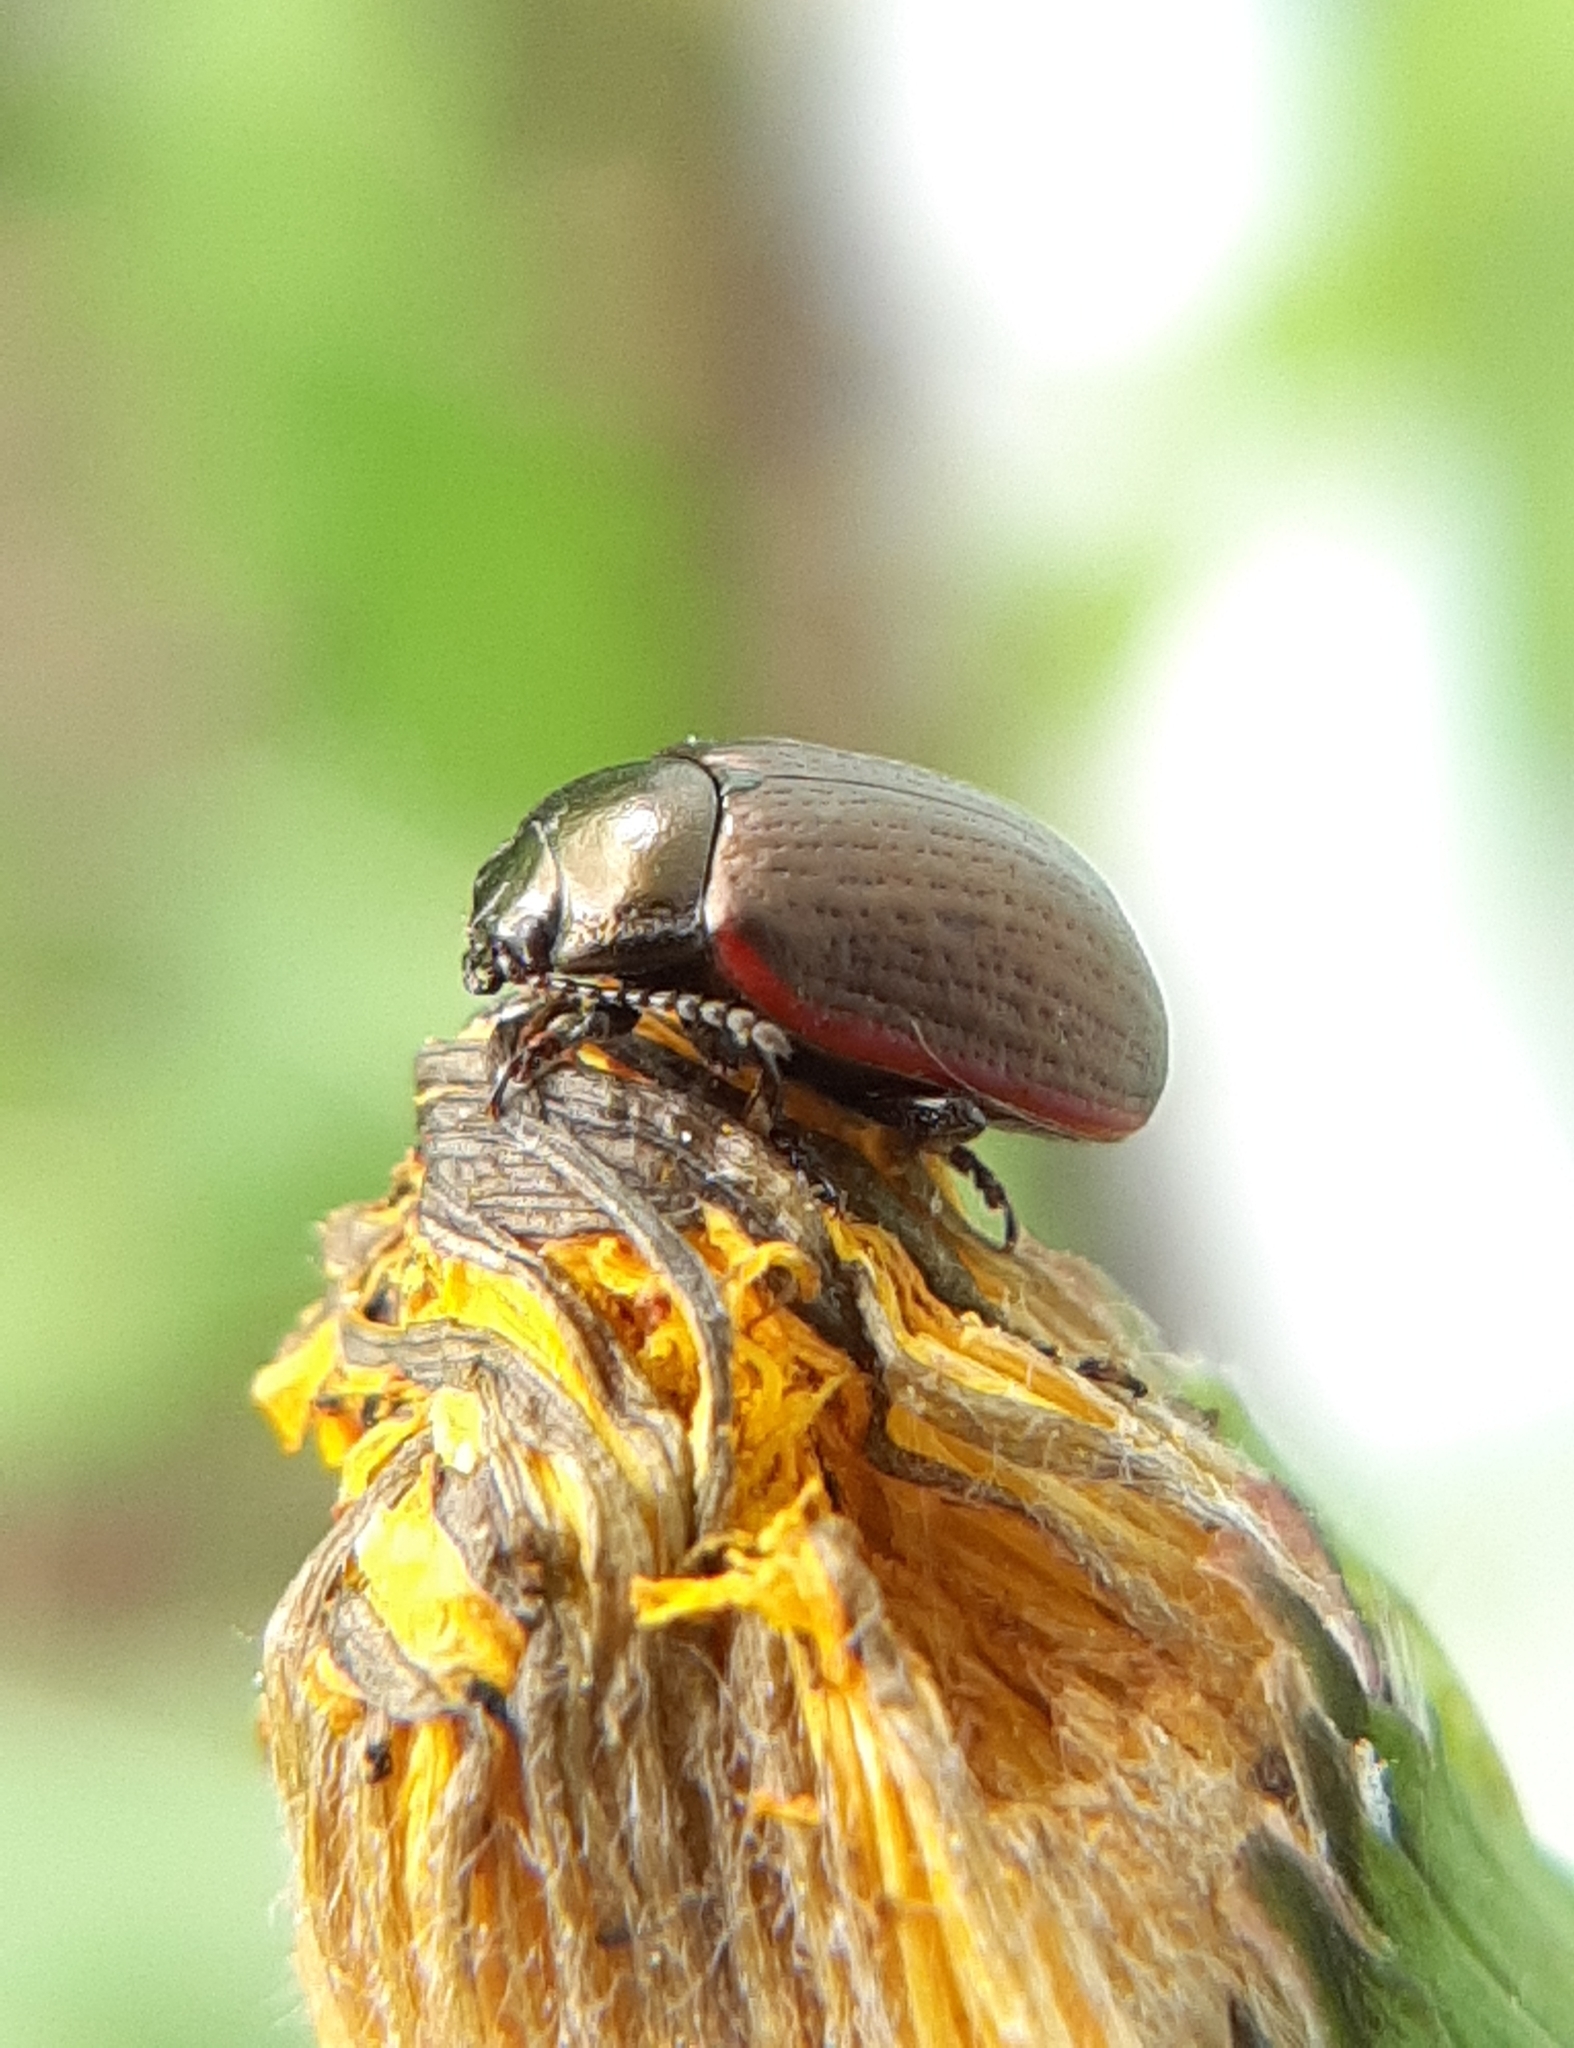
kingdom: Animalia
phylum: Arthropoda
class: Insecta
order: Coleoptera
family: Chrysomelidae
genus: Chrysolina
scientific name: Chrysolina marginata
